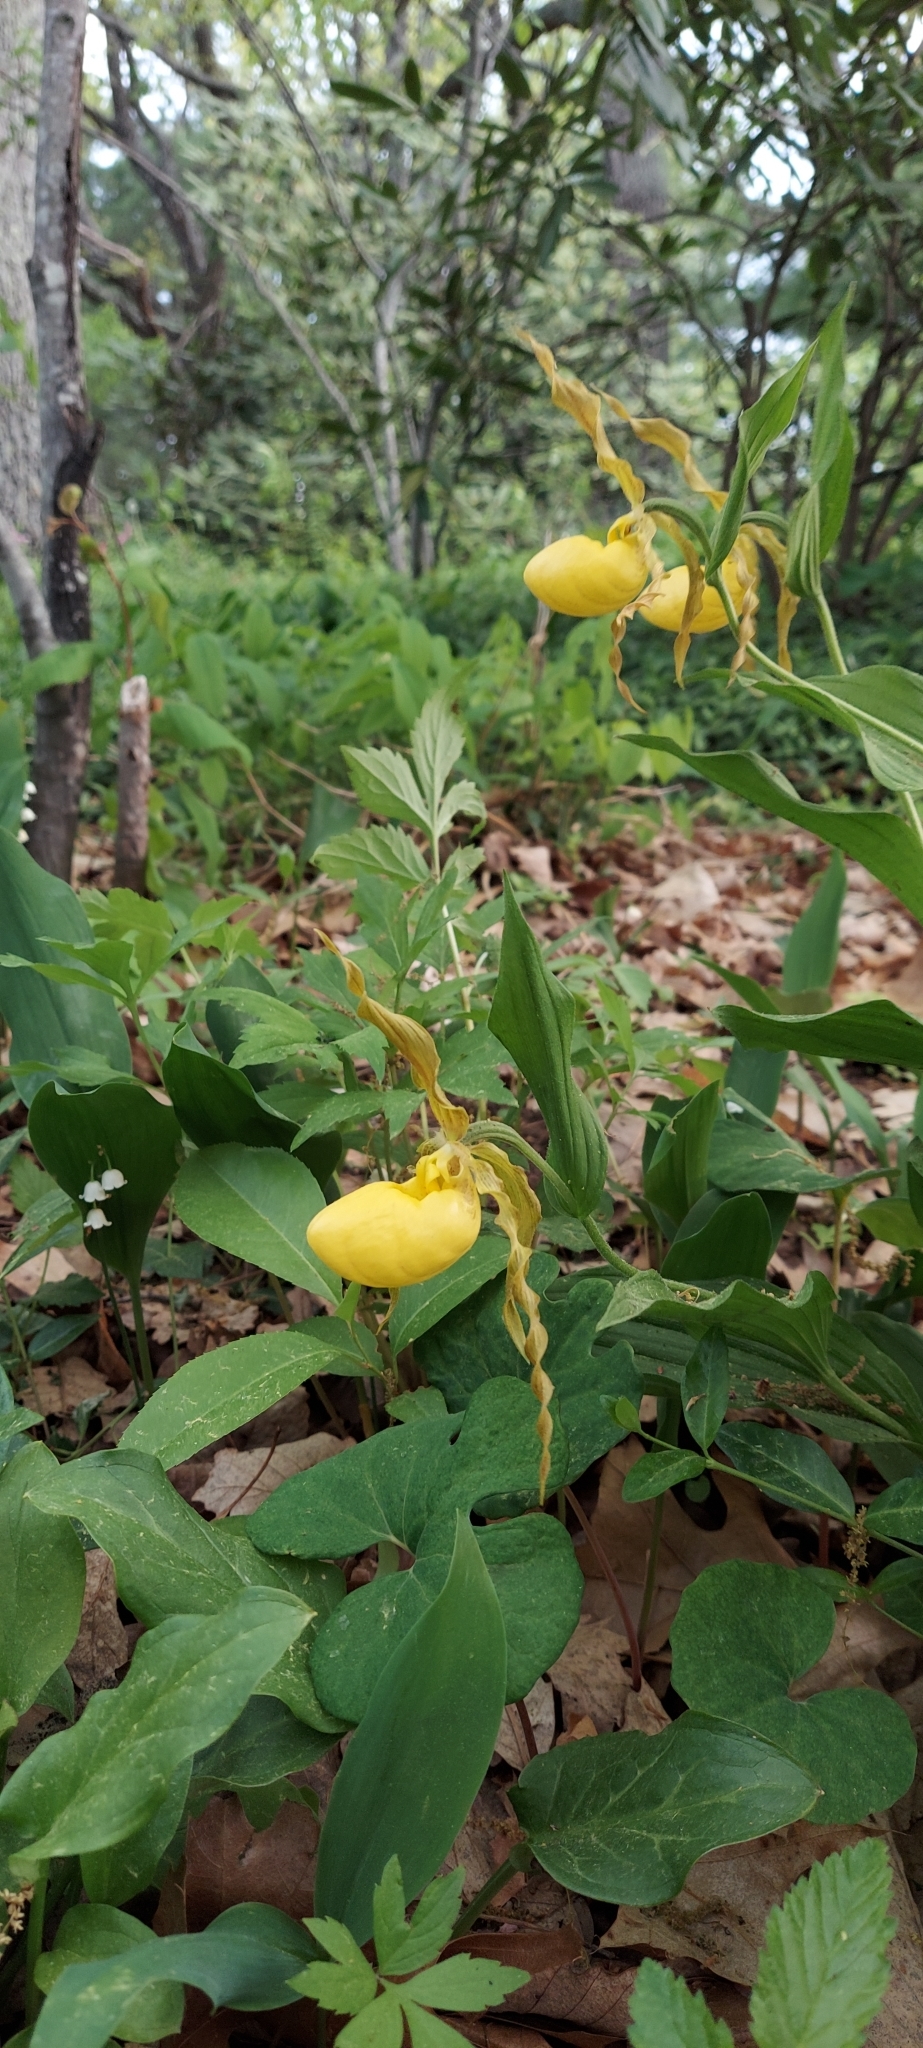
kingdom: Plantae
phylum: Tracheophyta
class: Liliopsida
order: Asparagales
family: Orchidaceae
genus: Cypripedium
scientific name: Cypripedium parviflorum
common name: American yellow lady's-slipper
